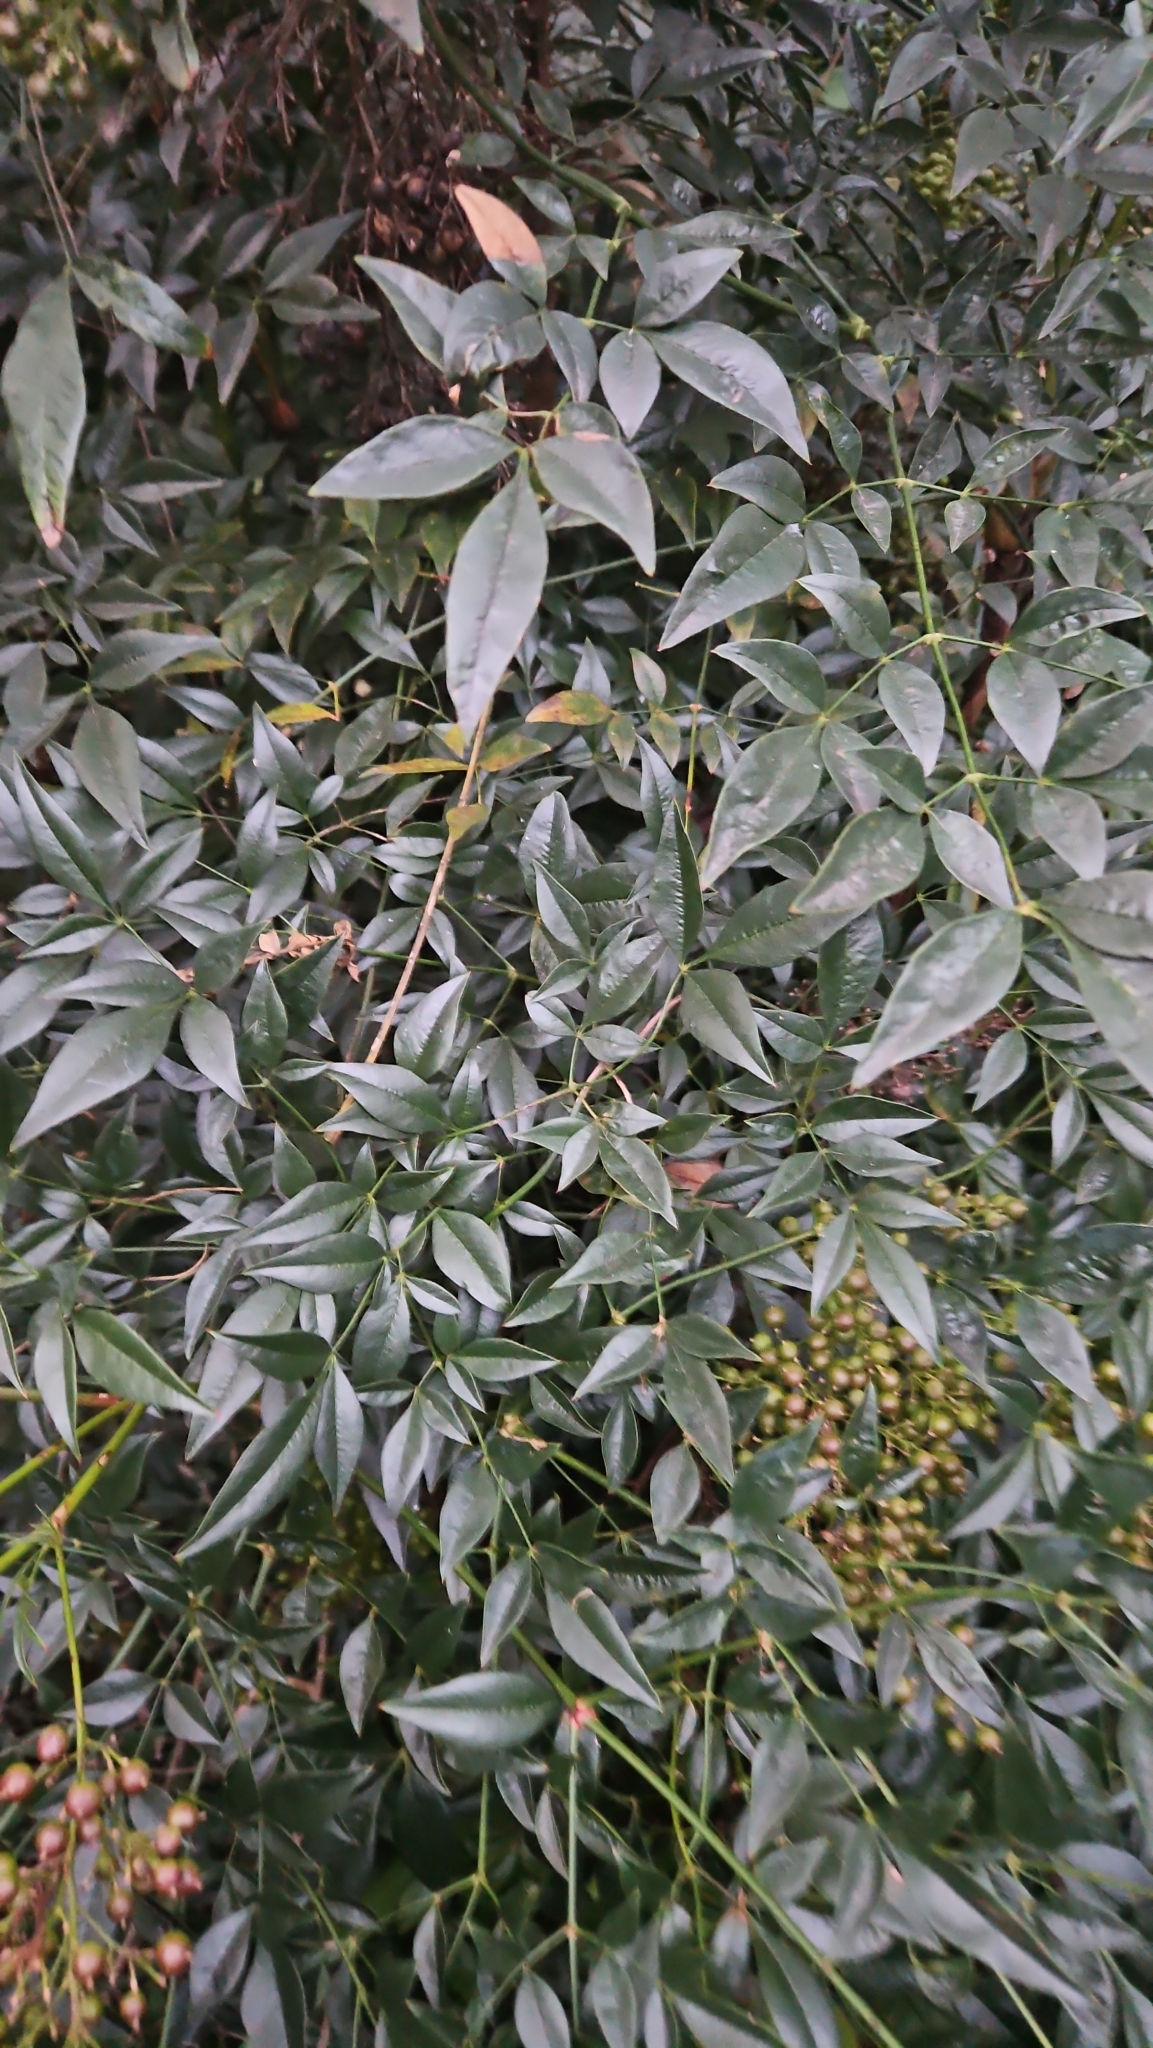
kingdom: Plantae
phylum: Tracheophyta
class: Magnoliopsida
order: Ranunculales
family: Berberidaceae
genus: Nandina
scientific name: Nandina domestica
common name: Sacred bamboo
